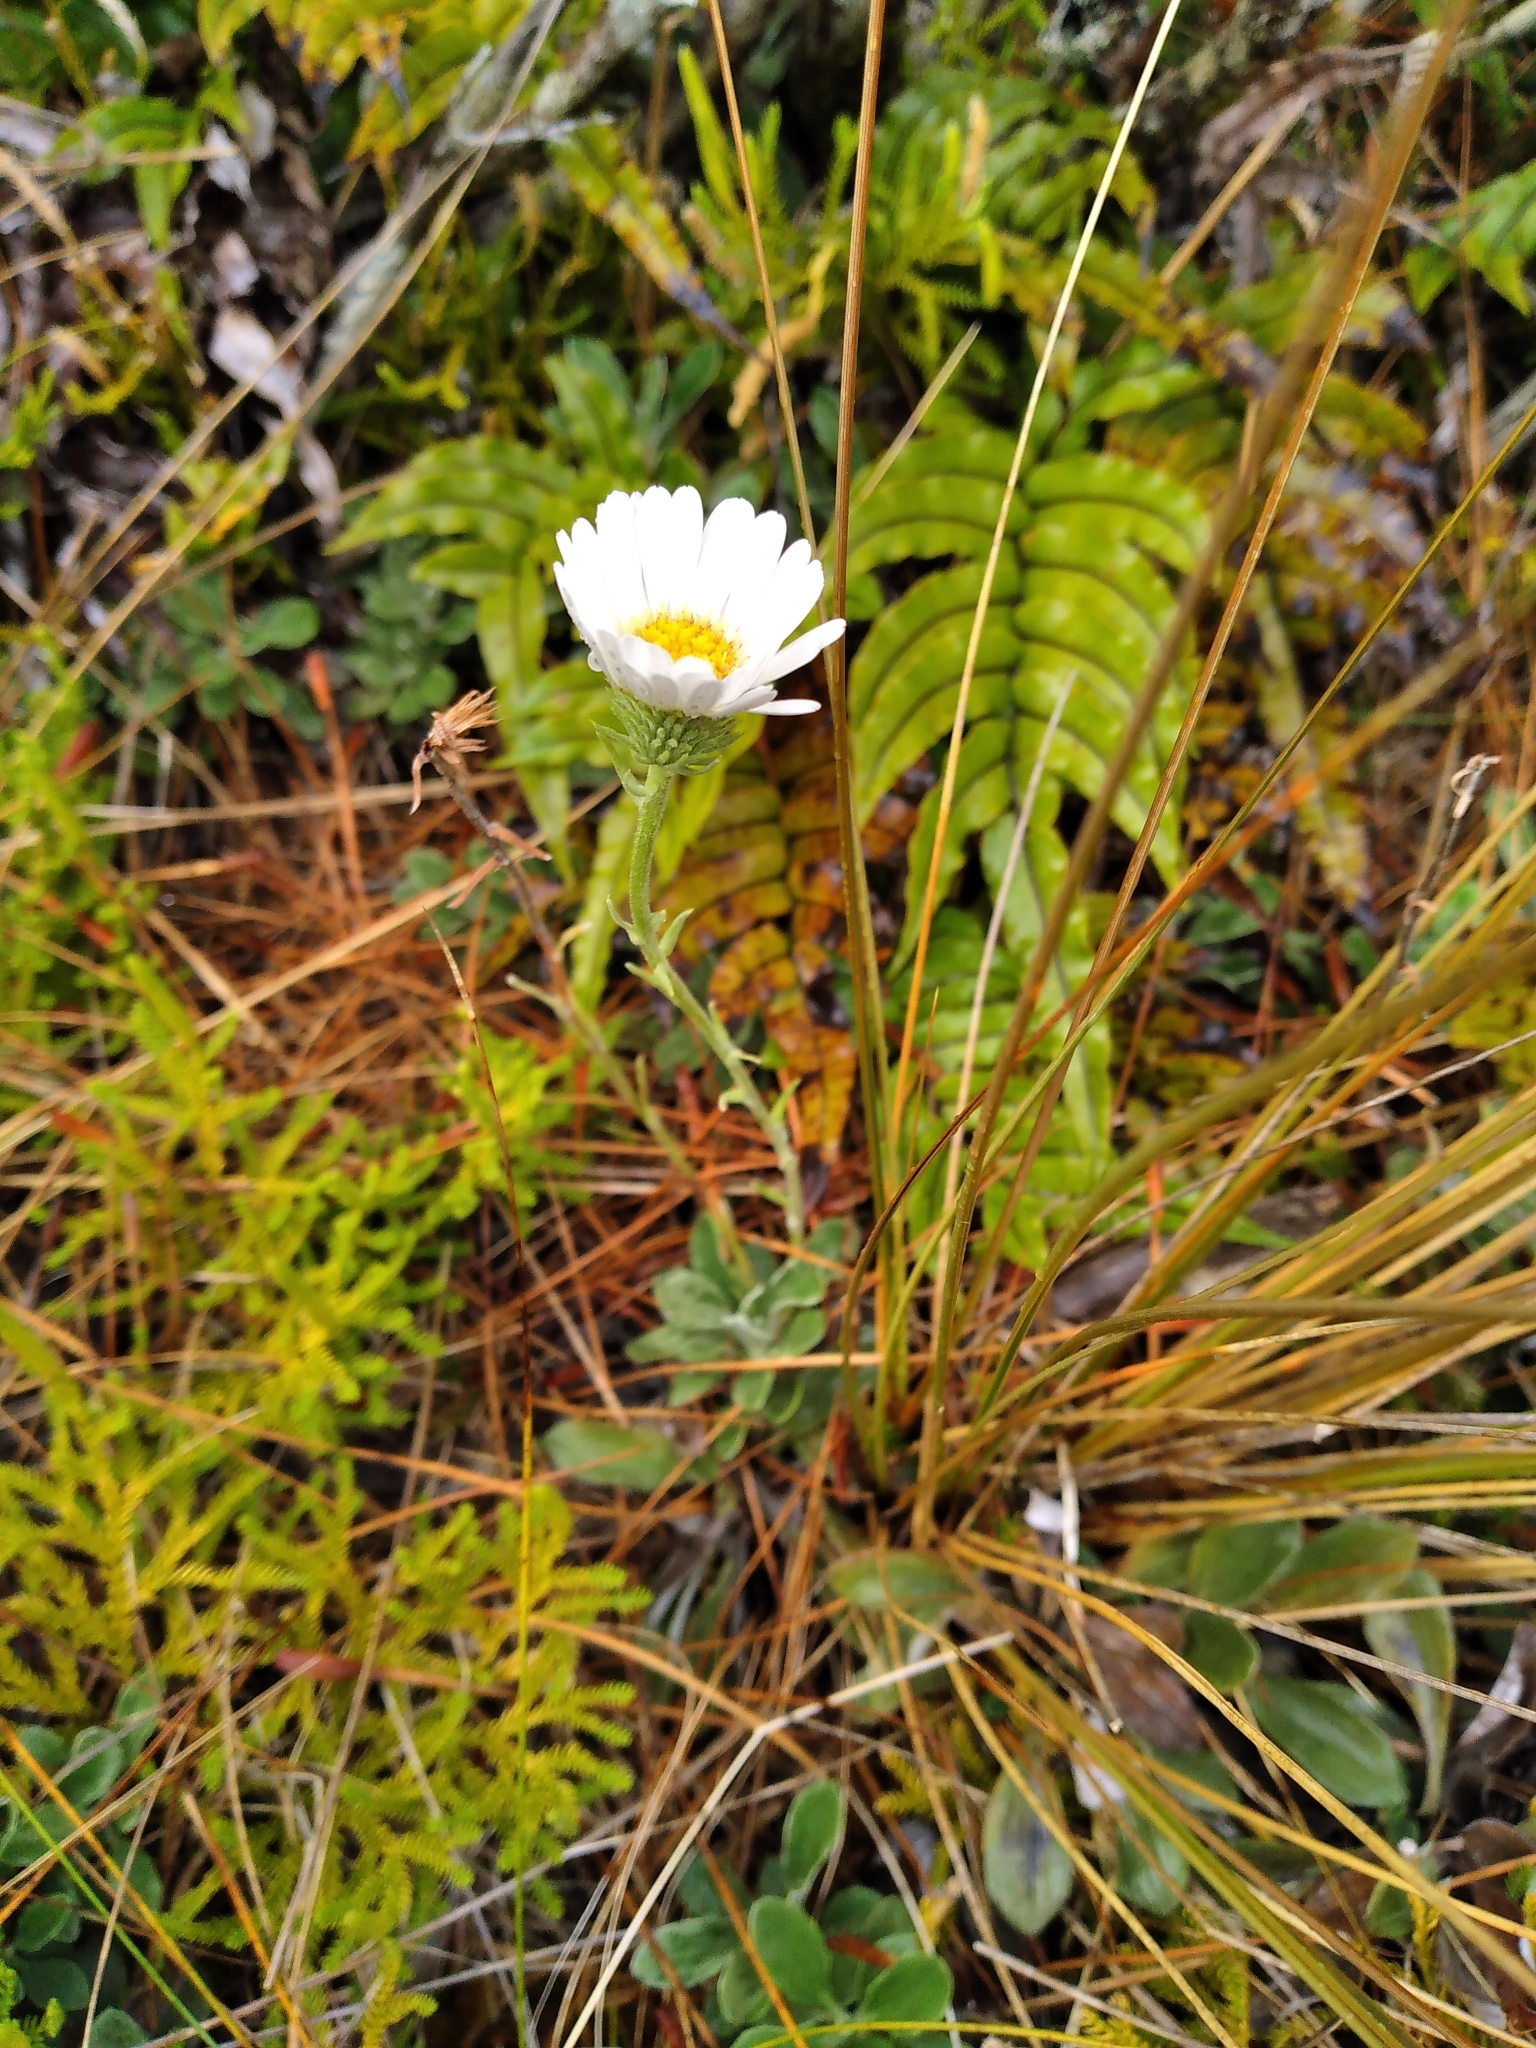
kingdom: Plantae
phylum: Tracheophyta
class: Magnoliopsida
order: Asterales
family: Asteraceae
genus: Celmisia
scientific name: Celmisia discolor
